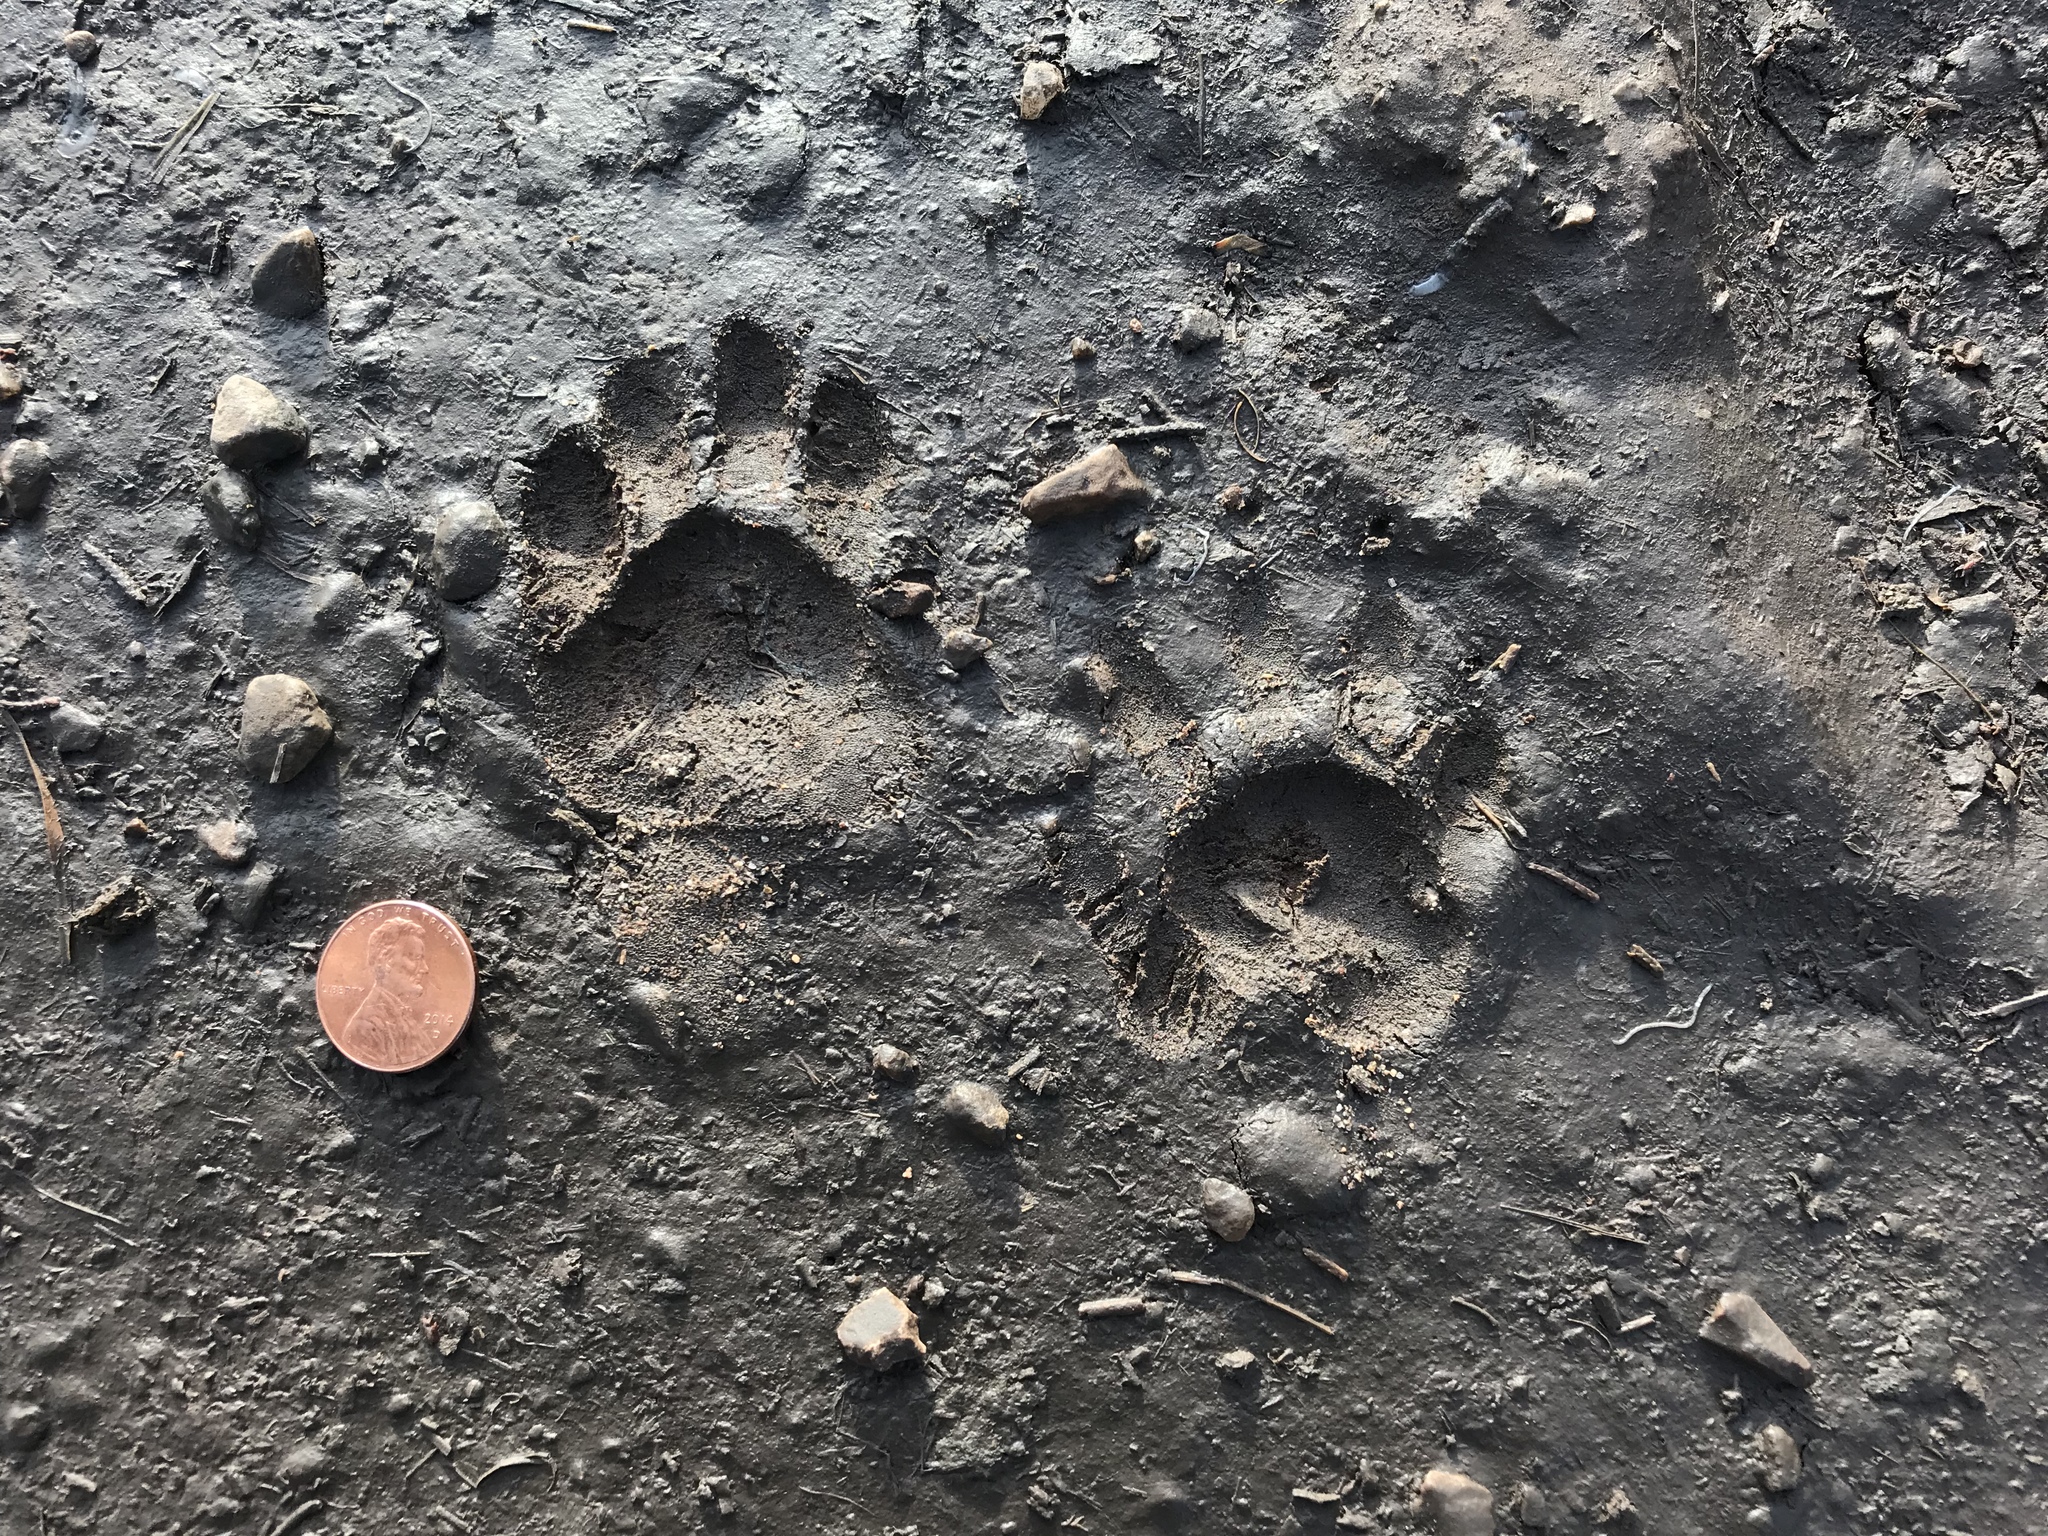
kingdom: Animalia
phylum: Chordata
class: Mammalia
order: Carnivora
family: Procyonidae
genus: Procyon
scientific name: Procyon lotor
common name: Raccoon
